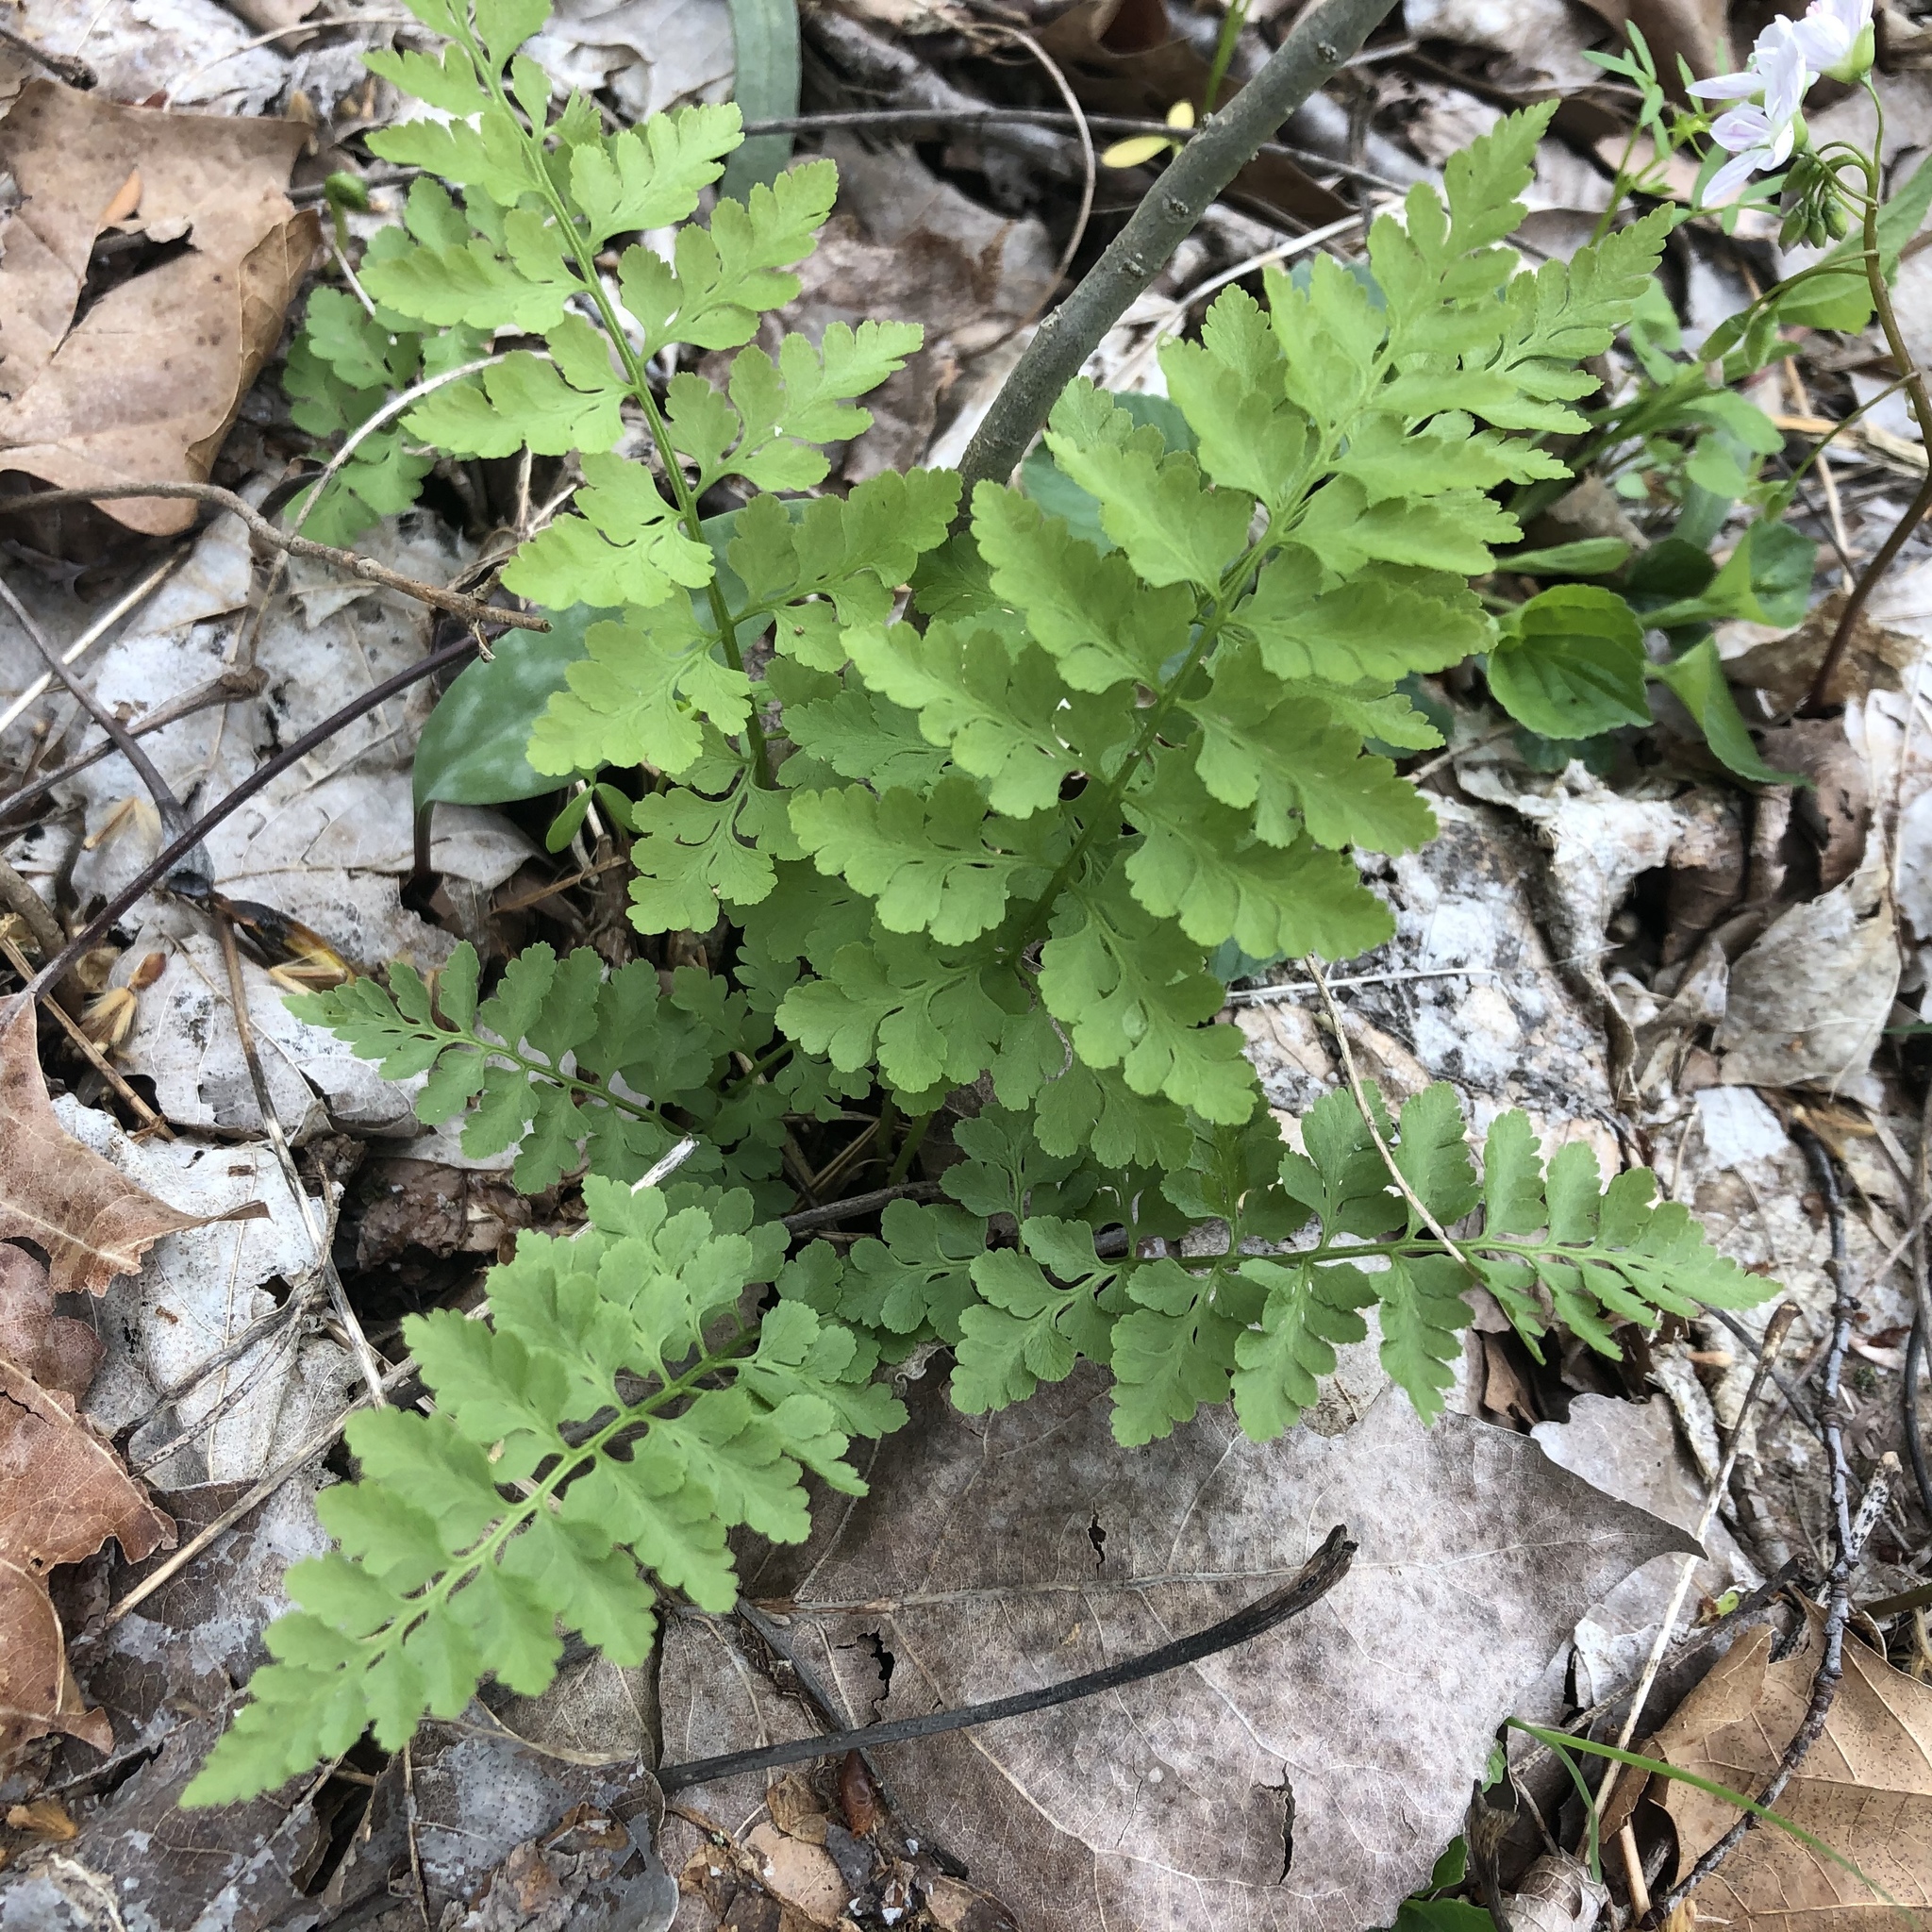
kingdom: Plantae
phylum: Tracheophyta
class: Polypodiopsida
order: Polypodiales
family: Cystopteridaceae
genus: Cystopteris
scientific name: Cystopteris protrusa
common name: Lowland brittle fern
